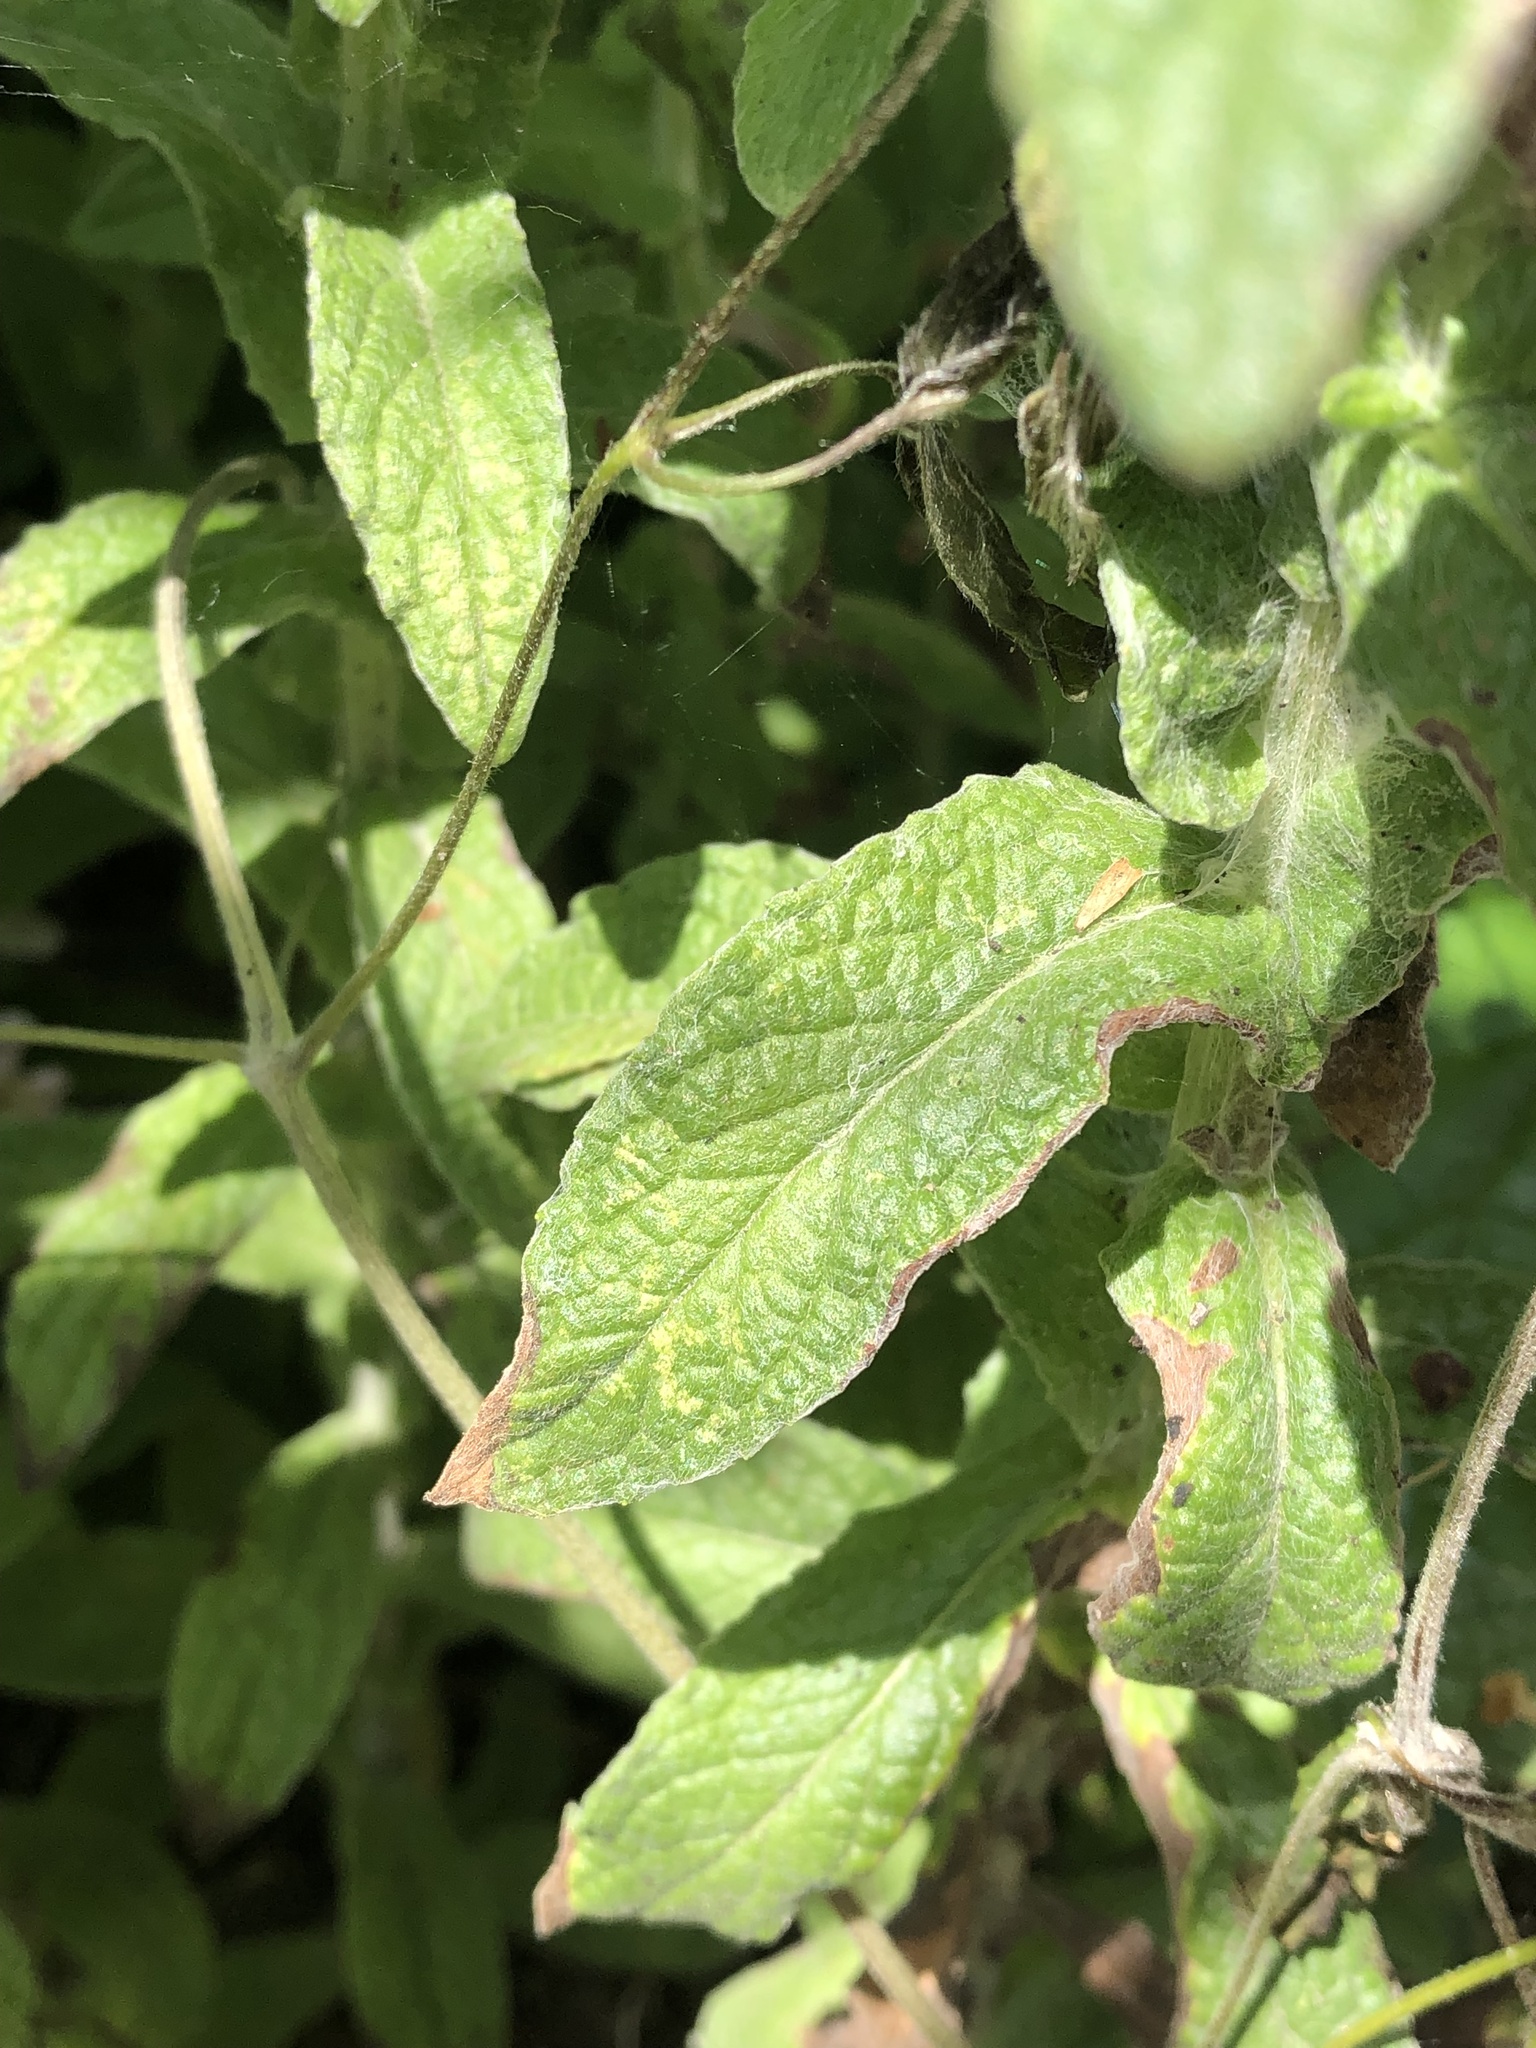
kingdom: Plantae
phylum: Tracheophyta
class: Magnoliopsida
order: Asterales
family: Asteraceae
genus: Pulicaria
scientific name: Pulicaria dysenterica
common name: Common fleabane
